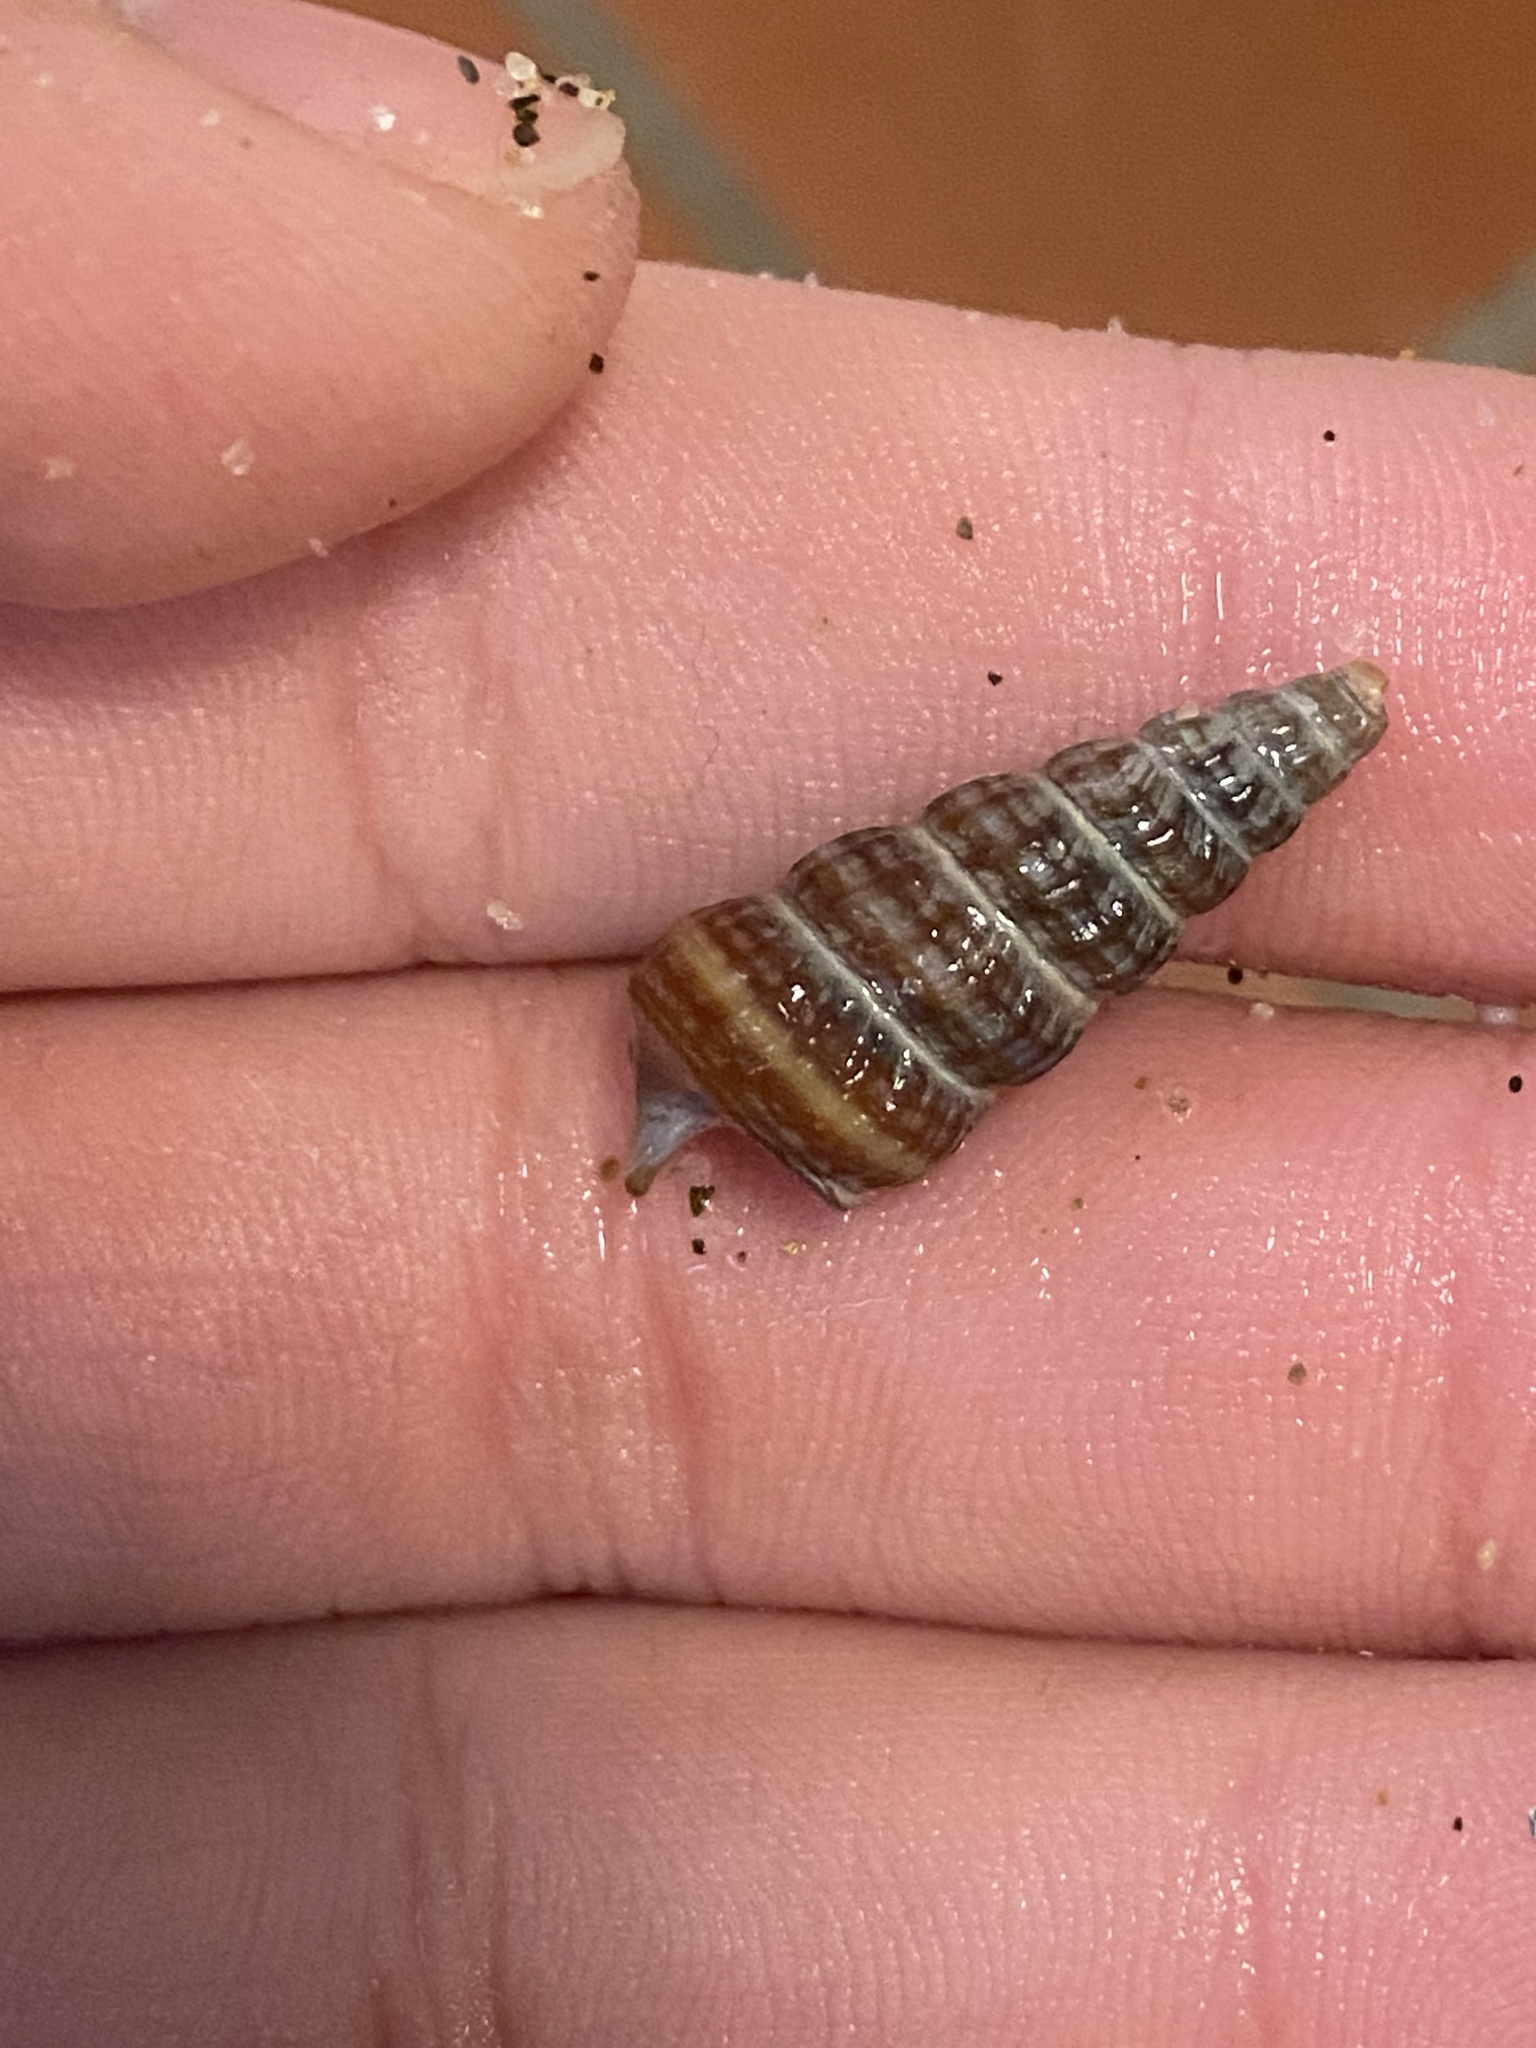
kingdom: Animalia
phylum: Mollusca
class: Gastropoda
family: Potamididae
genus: Cerithideopsis
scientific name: Cerithideopsis californica
